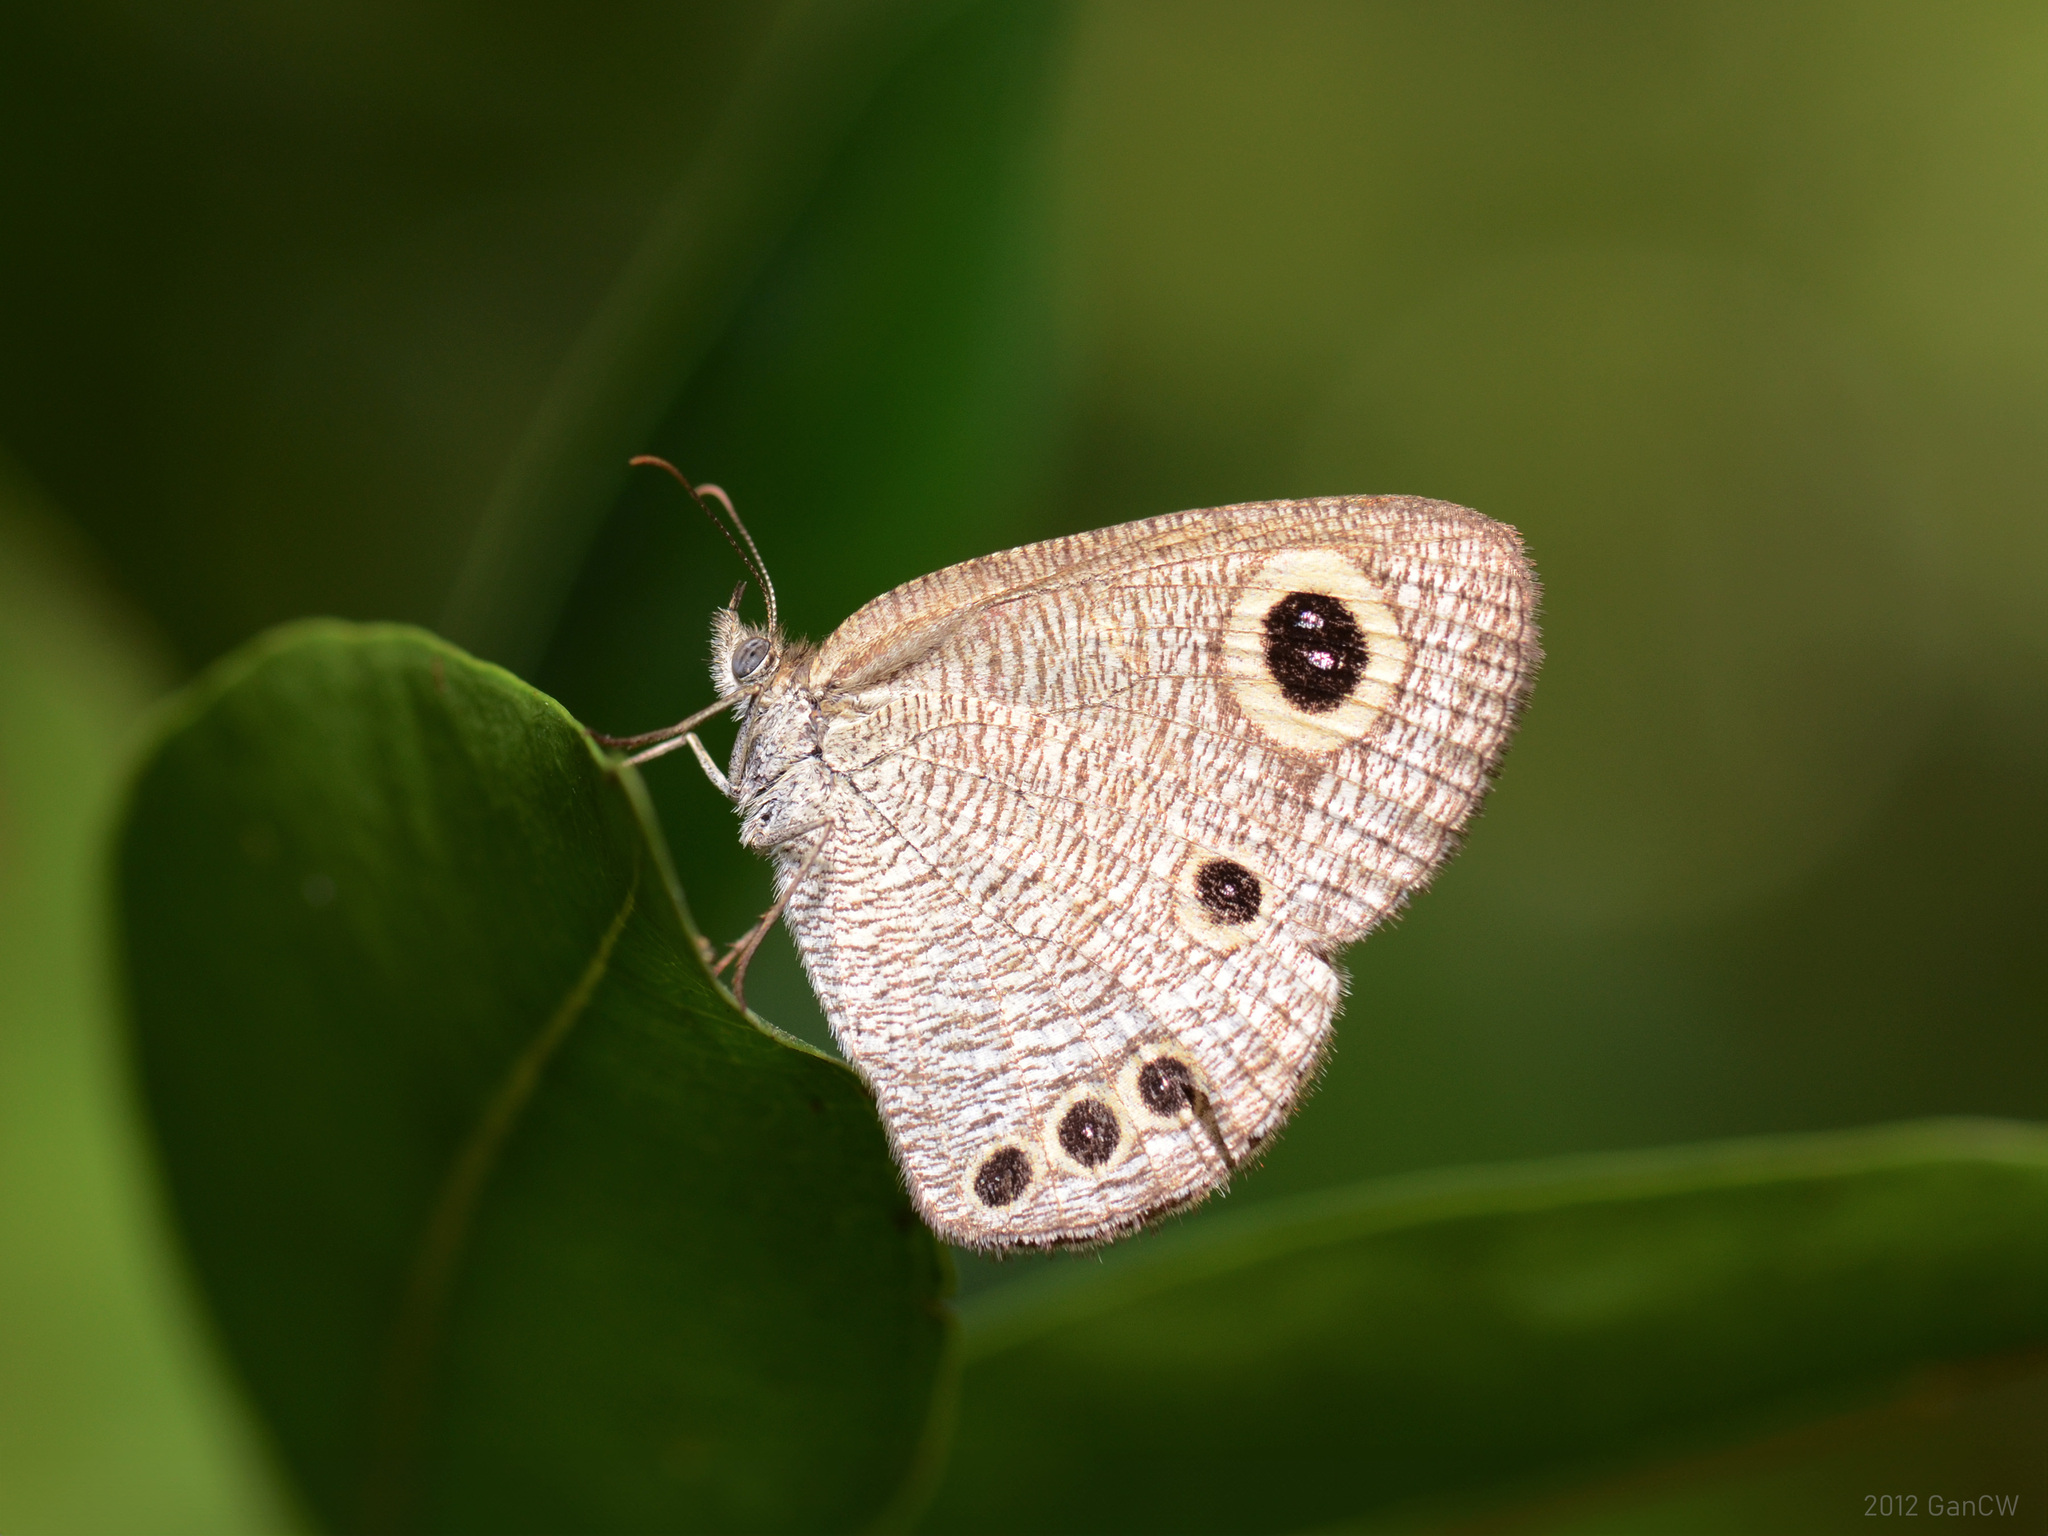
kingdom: Animalia
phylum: Arthropoda
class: Insecta
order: Lepidoptera
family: Nymphalidae
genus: Ypthima
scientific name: Ypthima huebneri
